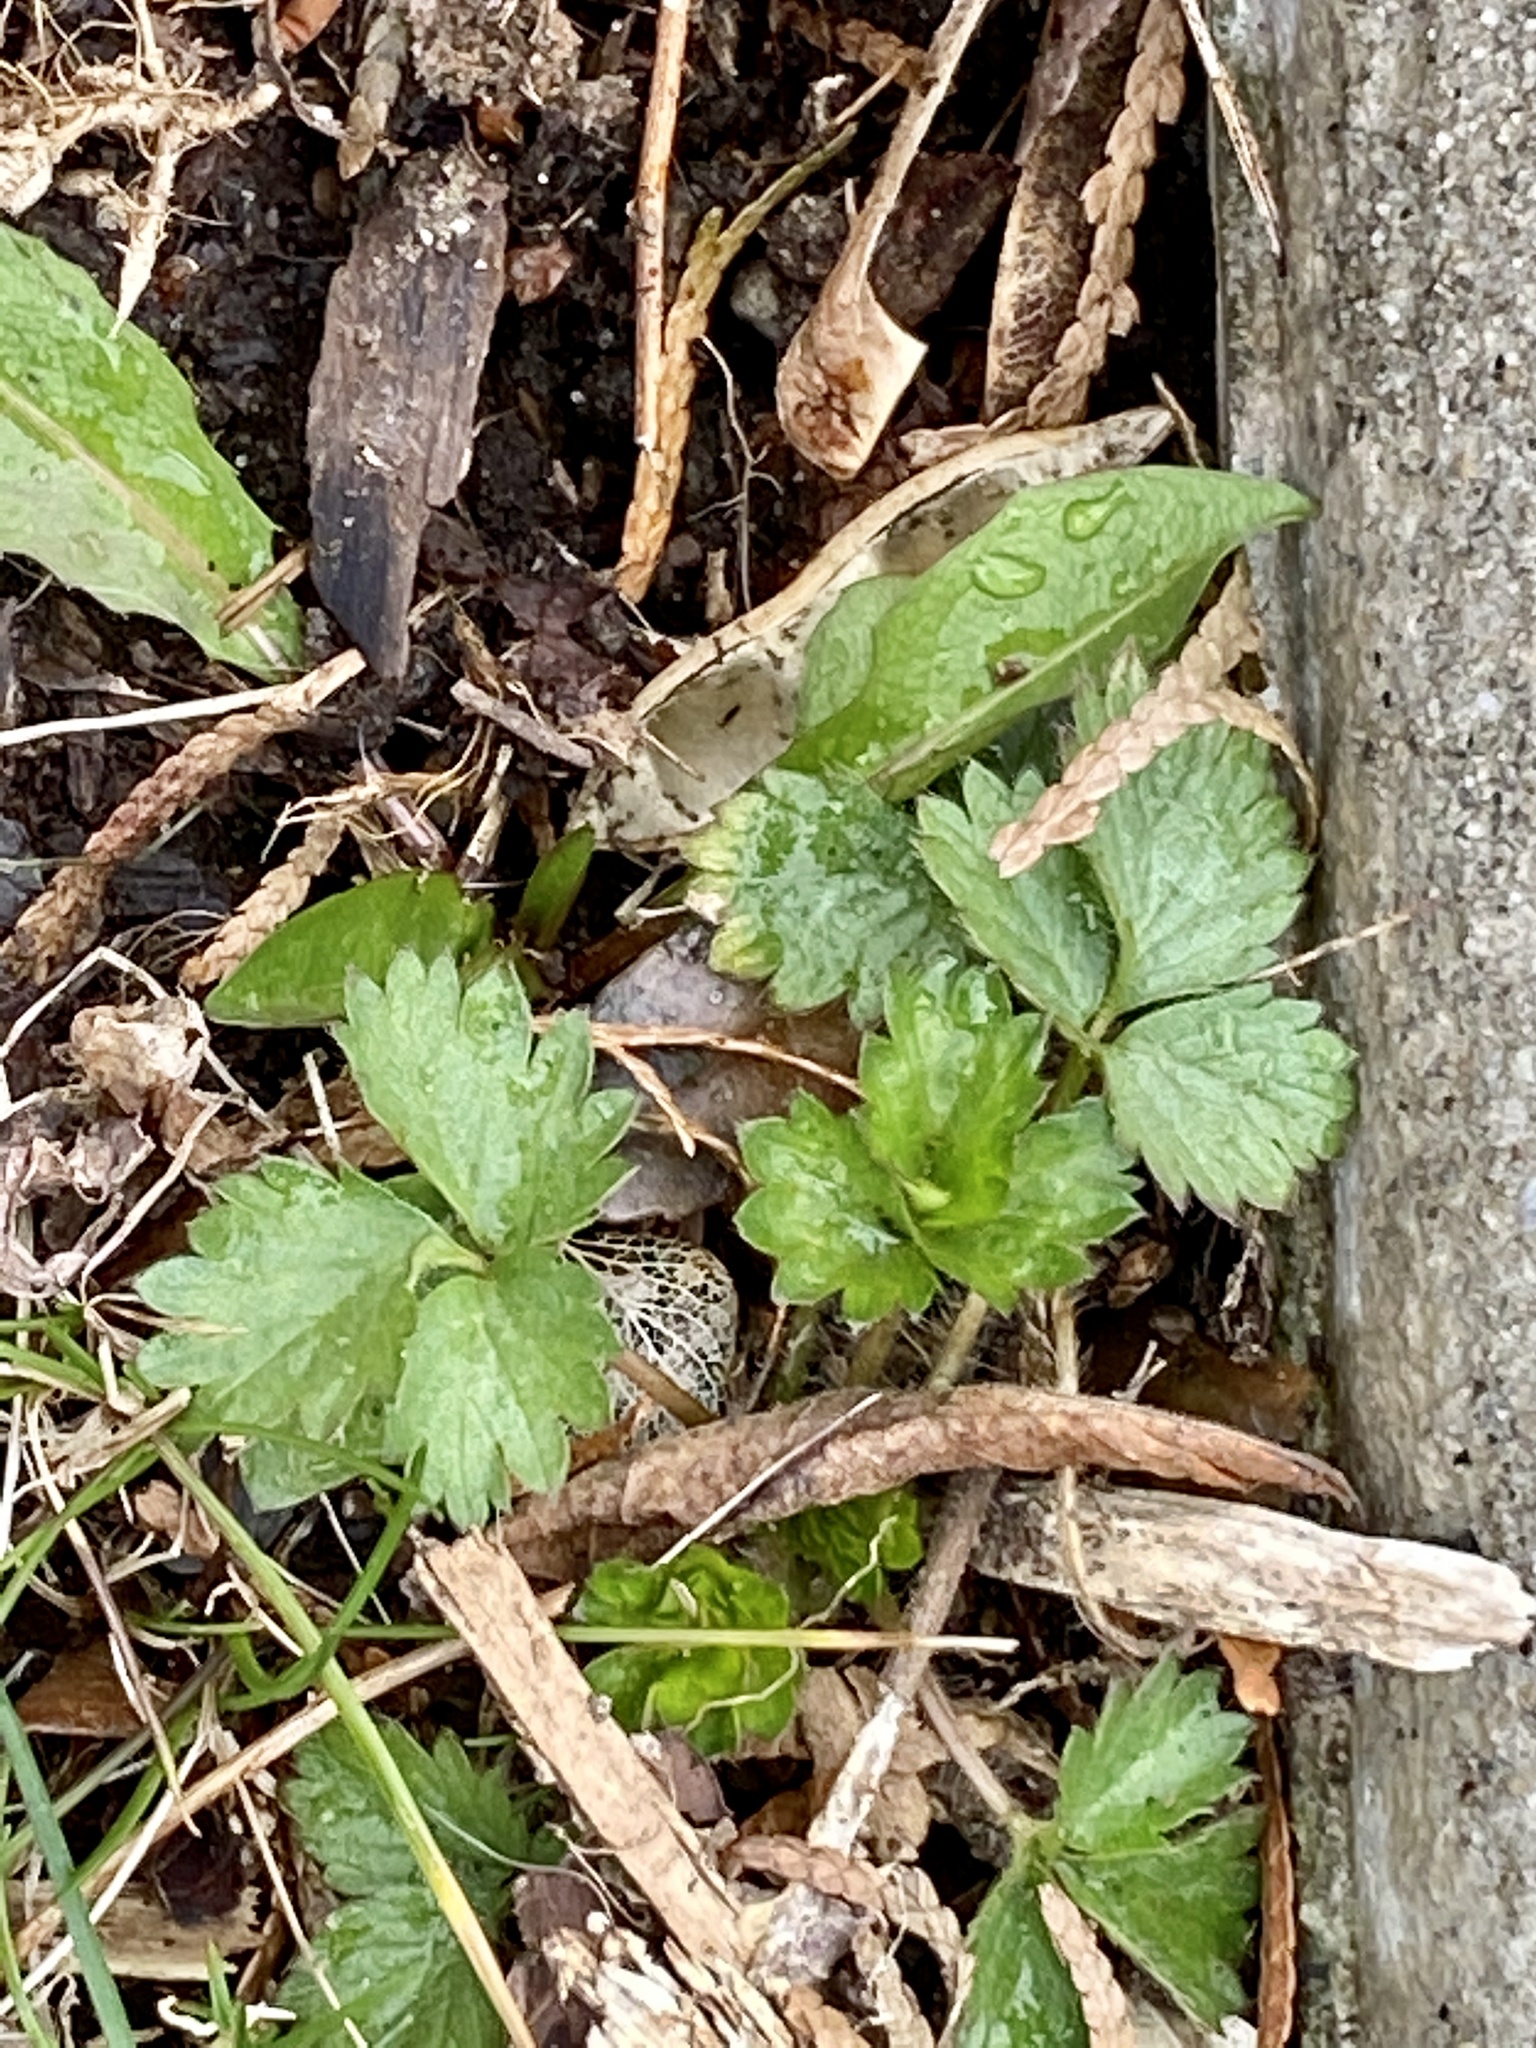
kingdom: Plantae
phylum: Tracheophyta
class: Magnoliopsida
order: Rosales
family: Rosaceae
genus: Potentilla
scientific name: Potentilla indica
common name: Yellow-flowered strawberry
